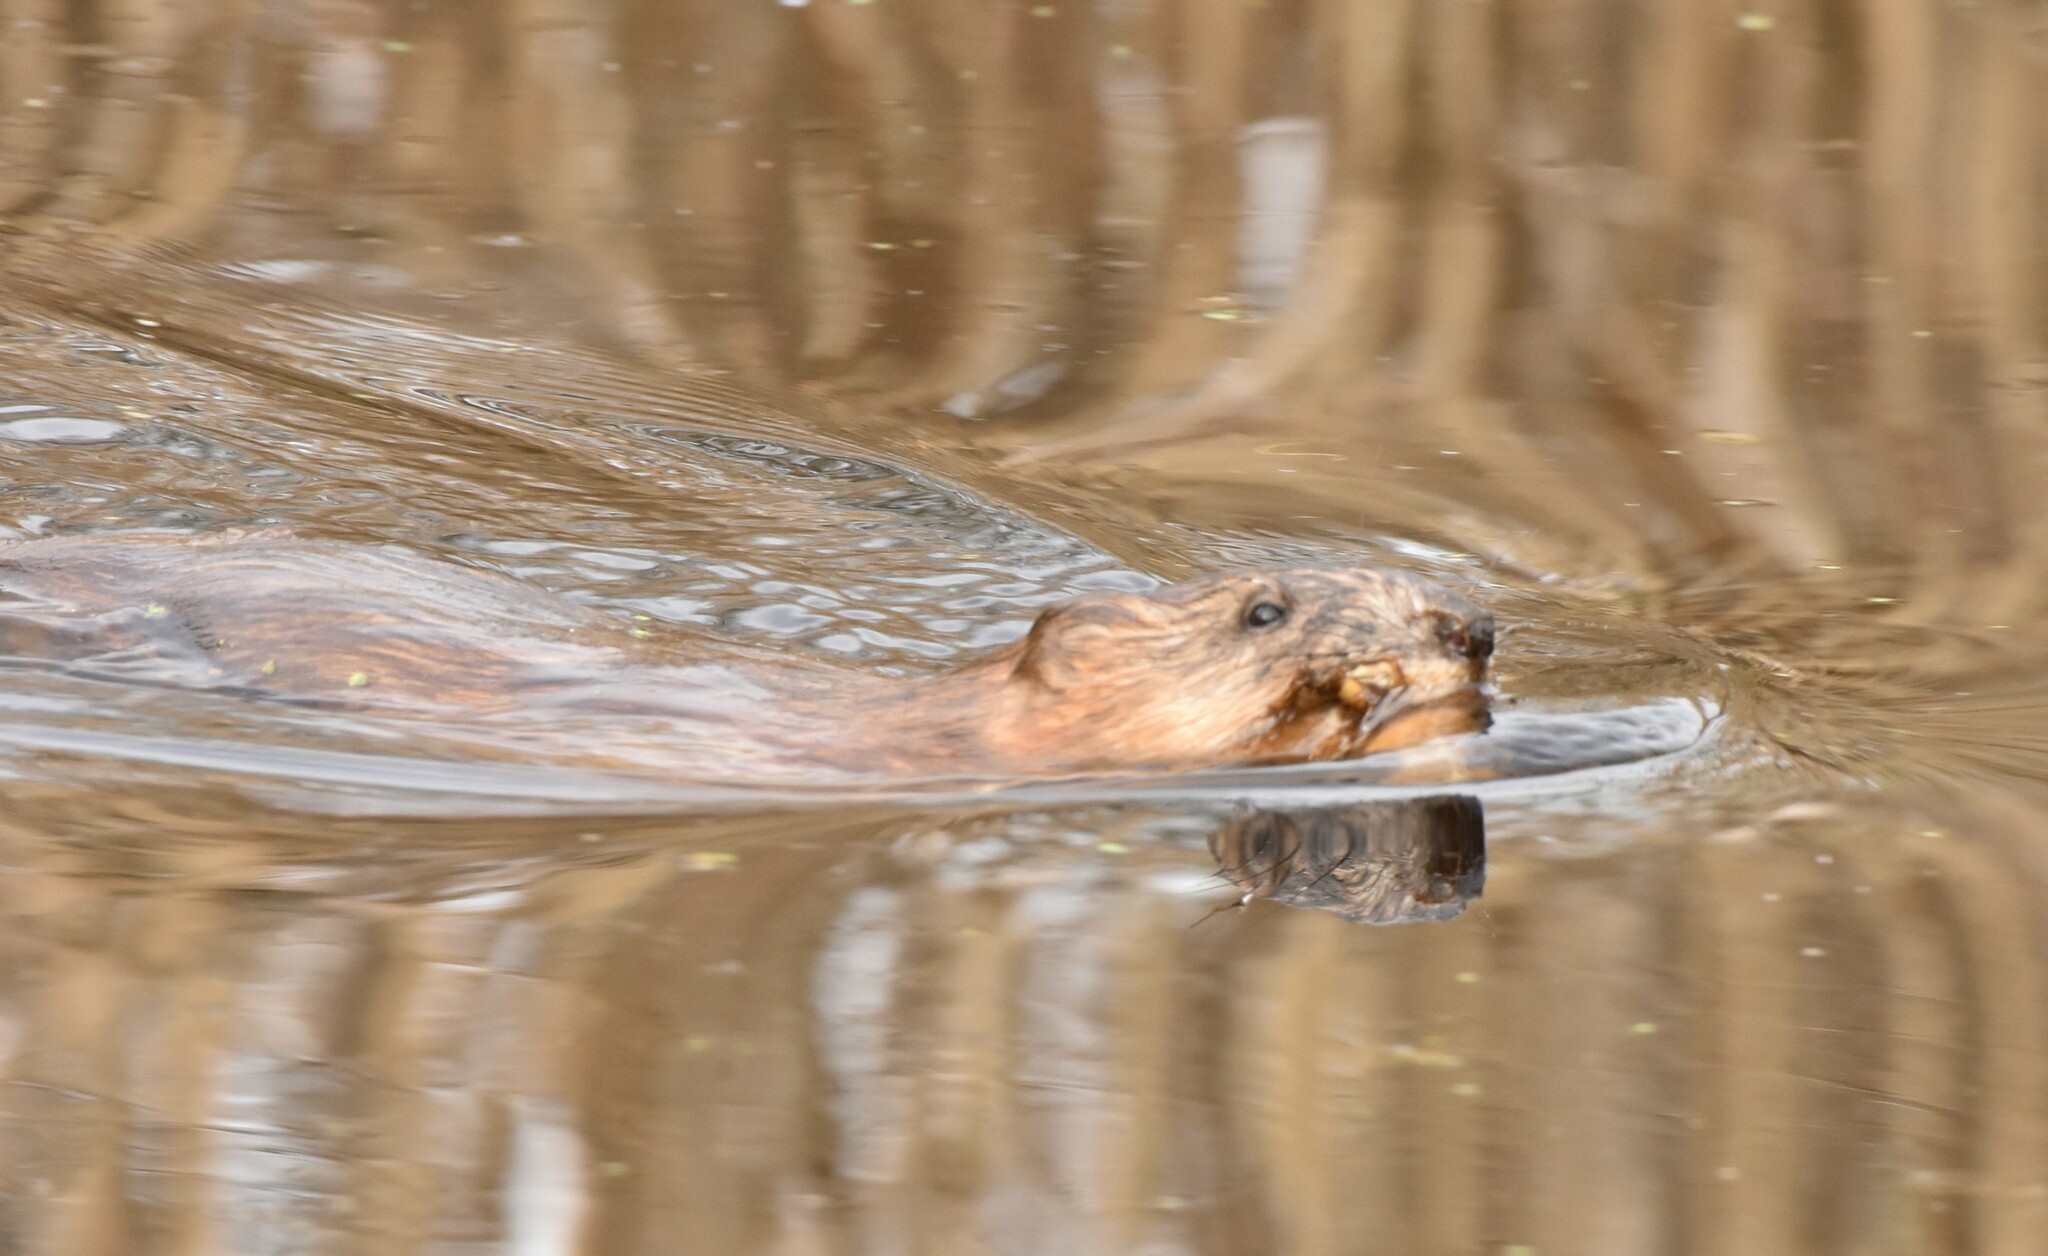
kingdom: Animalia
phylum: Chordata
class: Mammalia
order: Rodentia
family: Cricetidae
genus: Ondatra
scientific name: Ondatra zibethicus
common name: Muskrat
